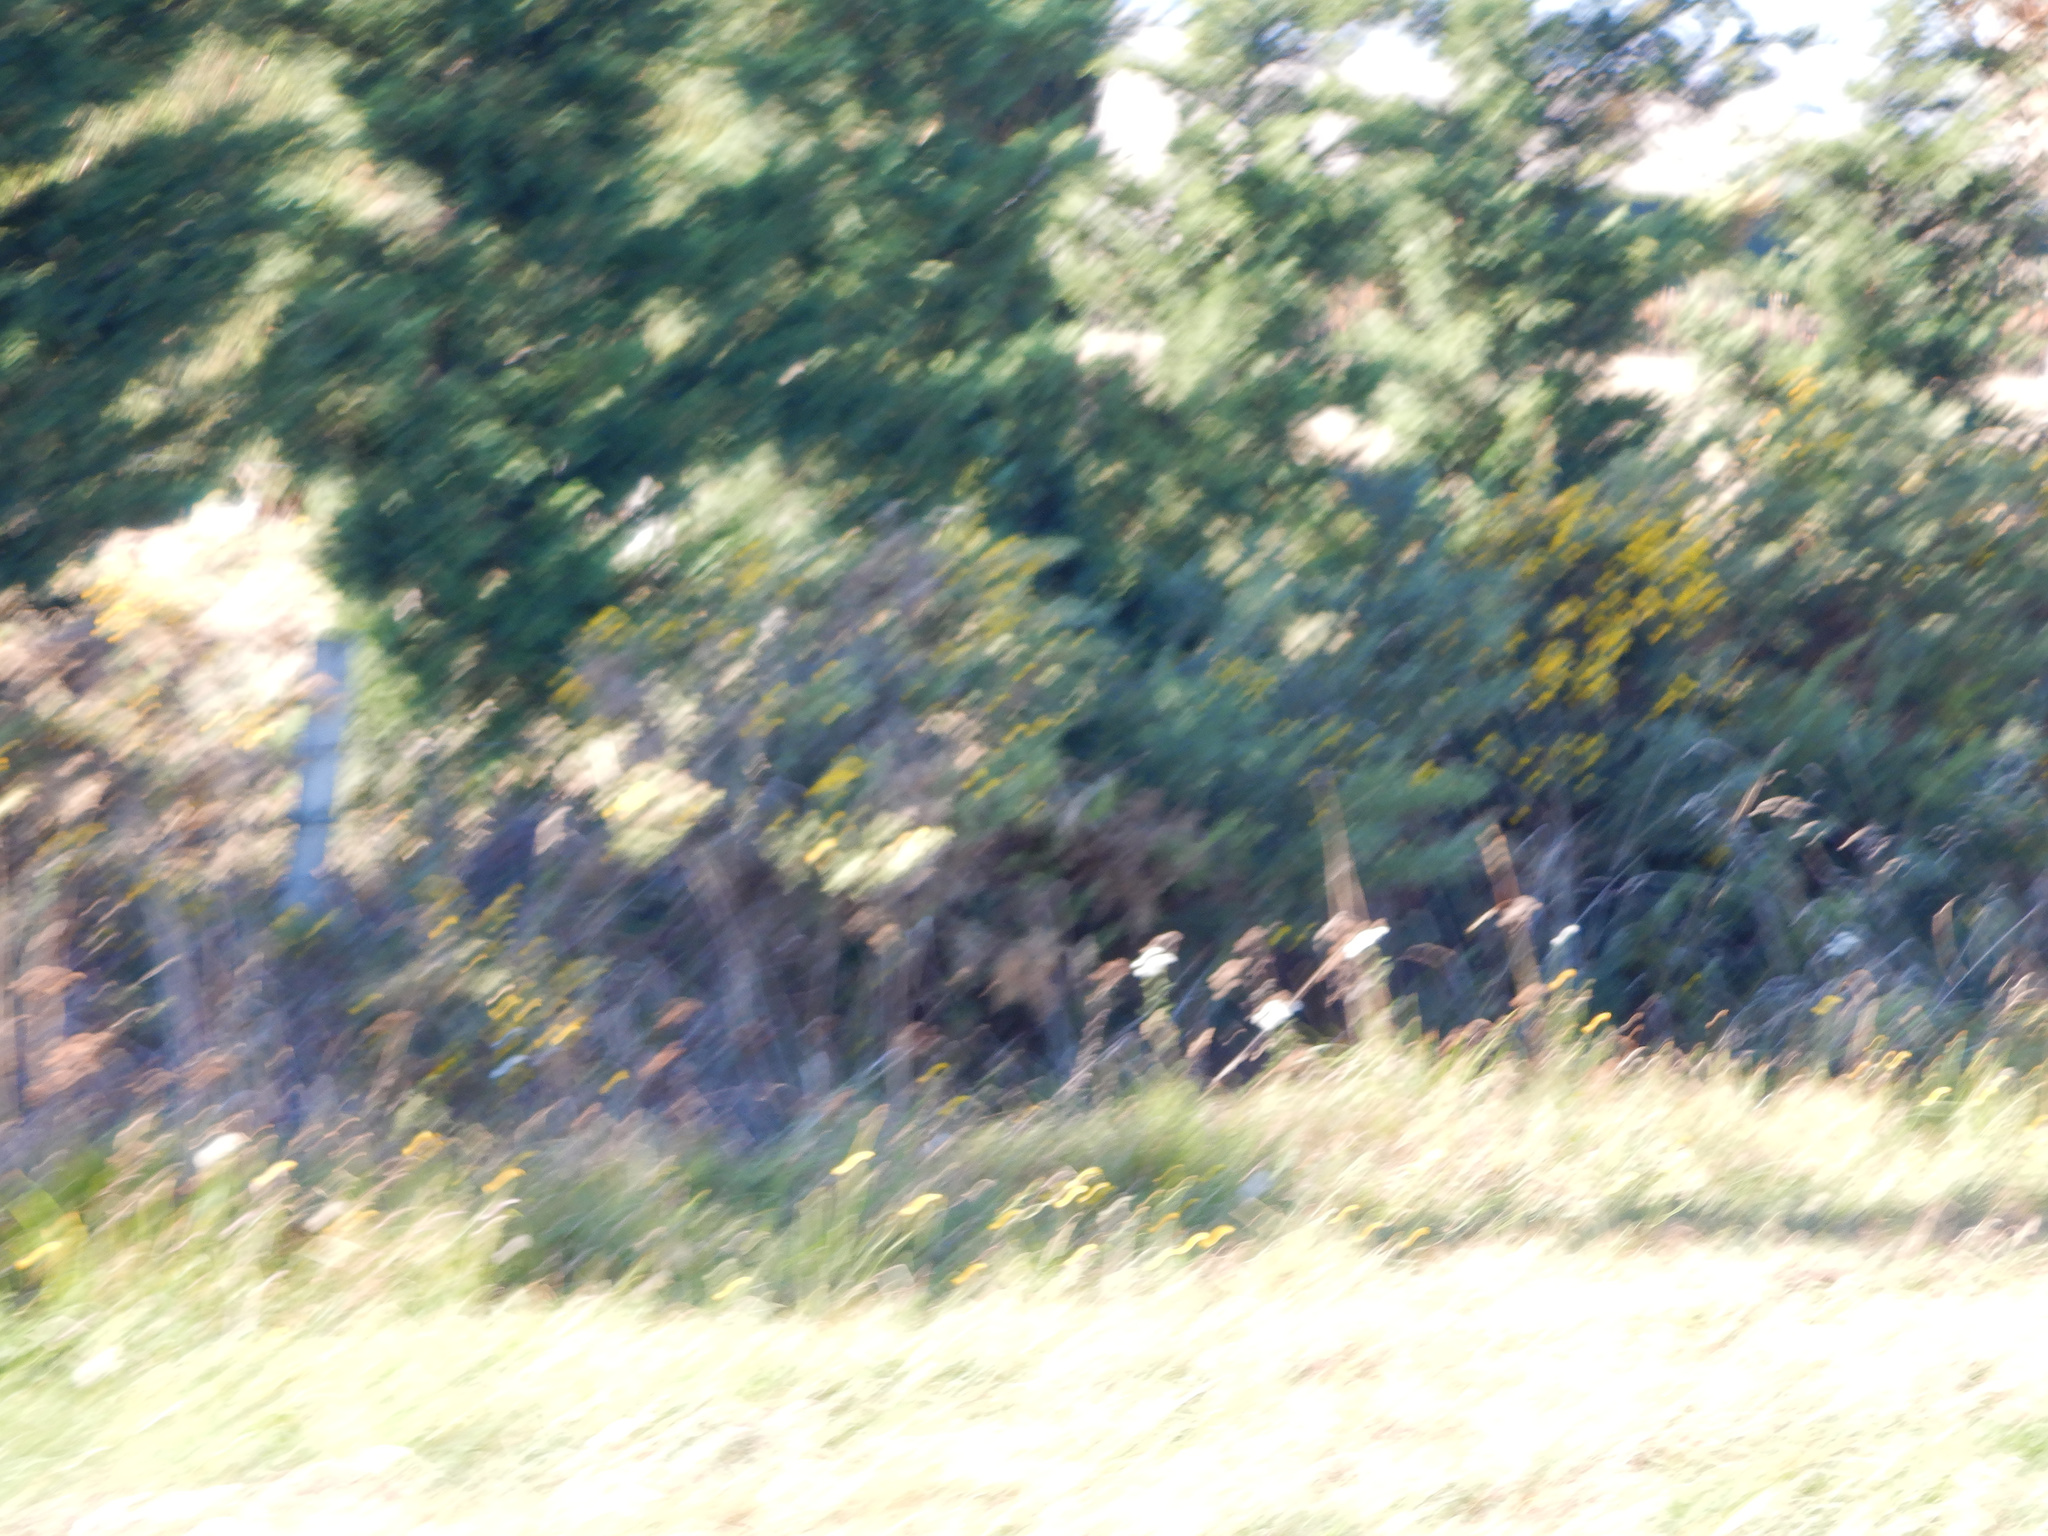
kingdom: Plantae
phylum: Tracheophyta
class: Magnoliopsida
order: Fabales
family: Fabaceae
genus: Ulex
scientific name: Ulex europaeus
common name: Common gorse
